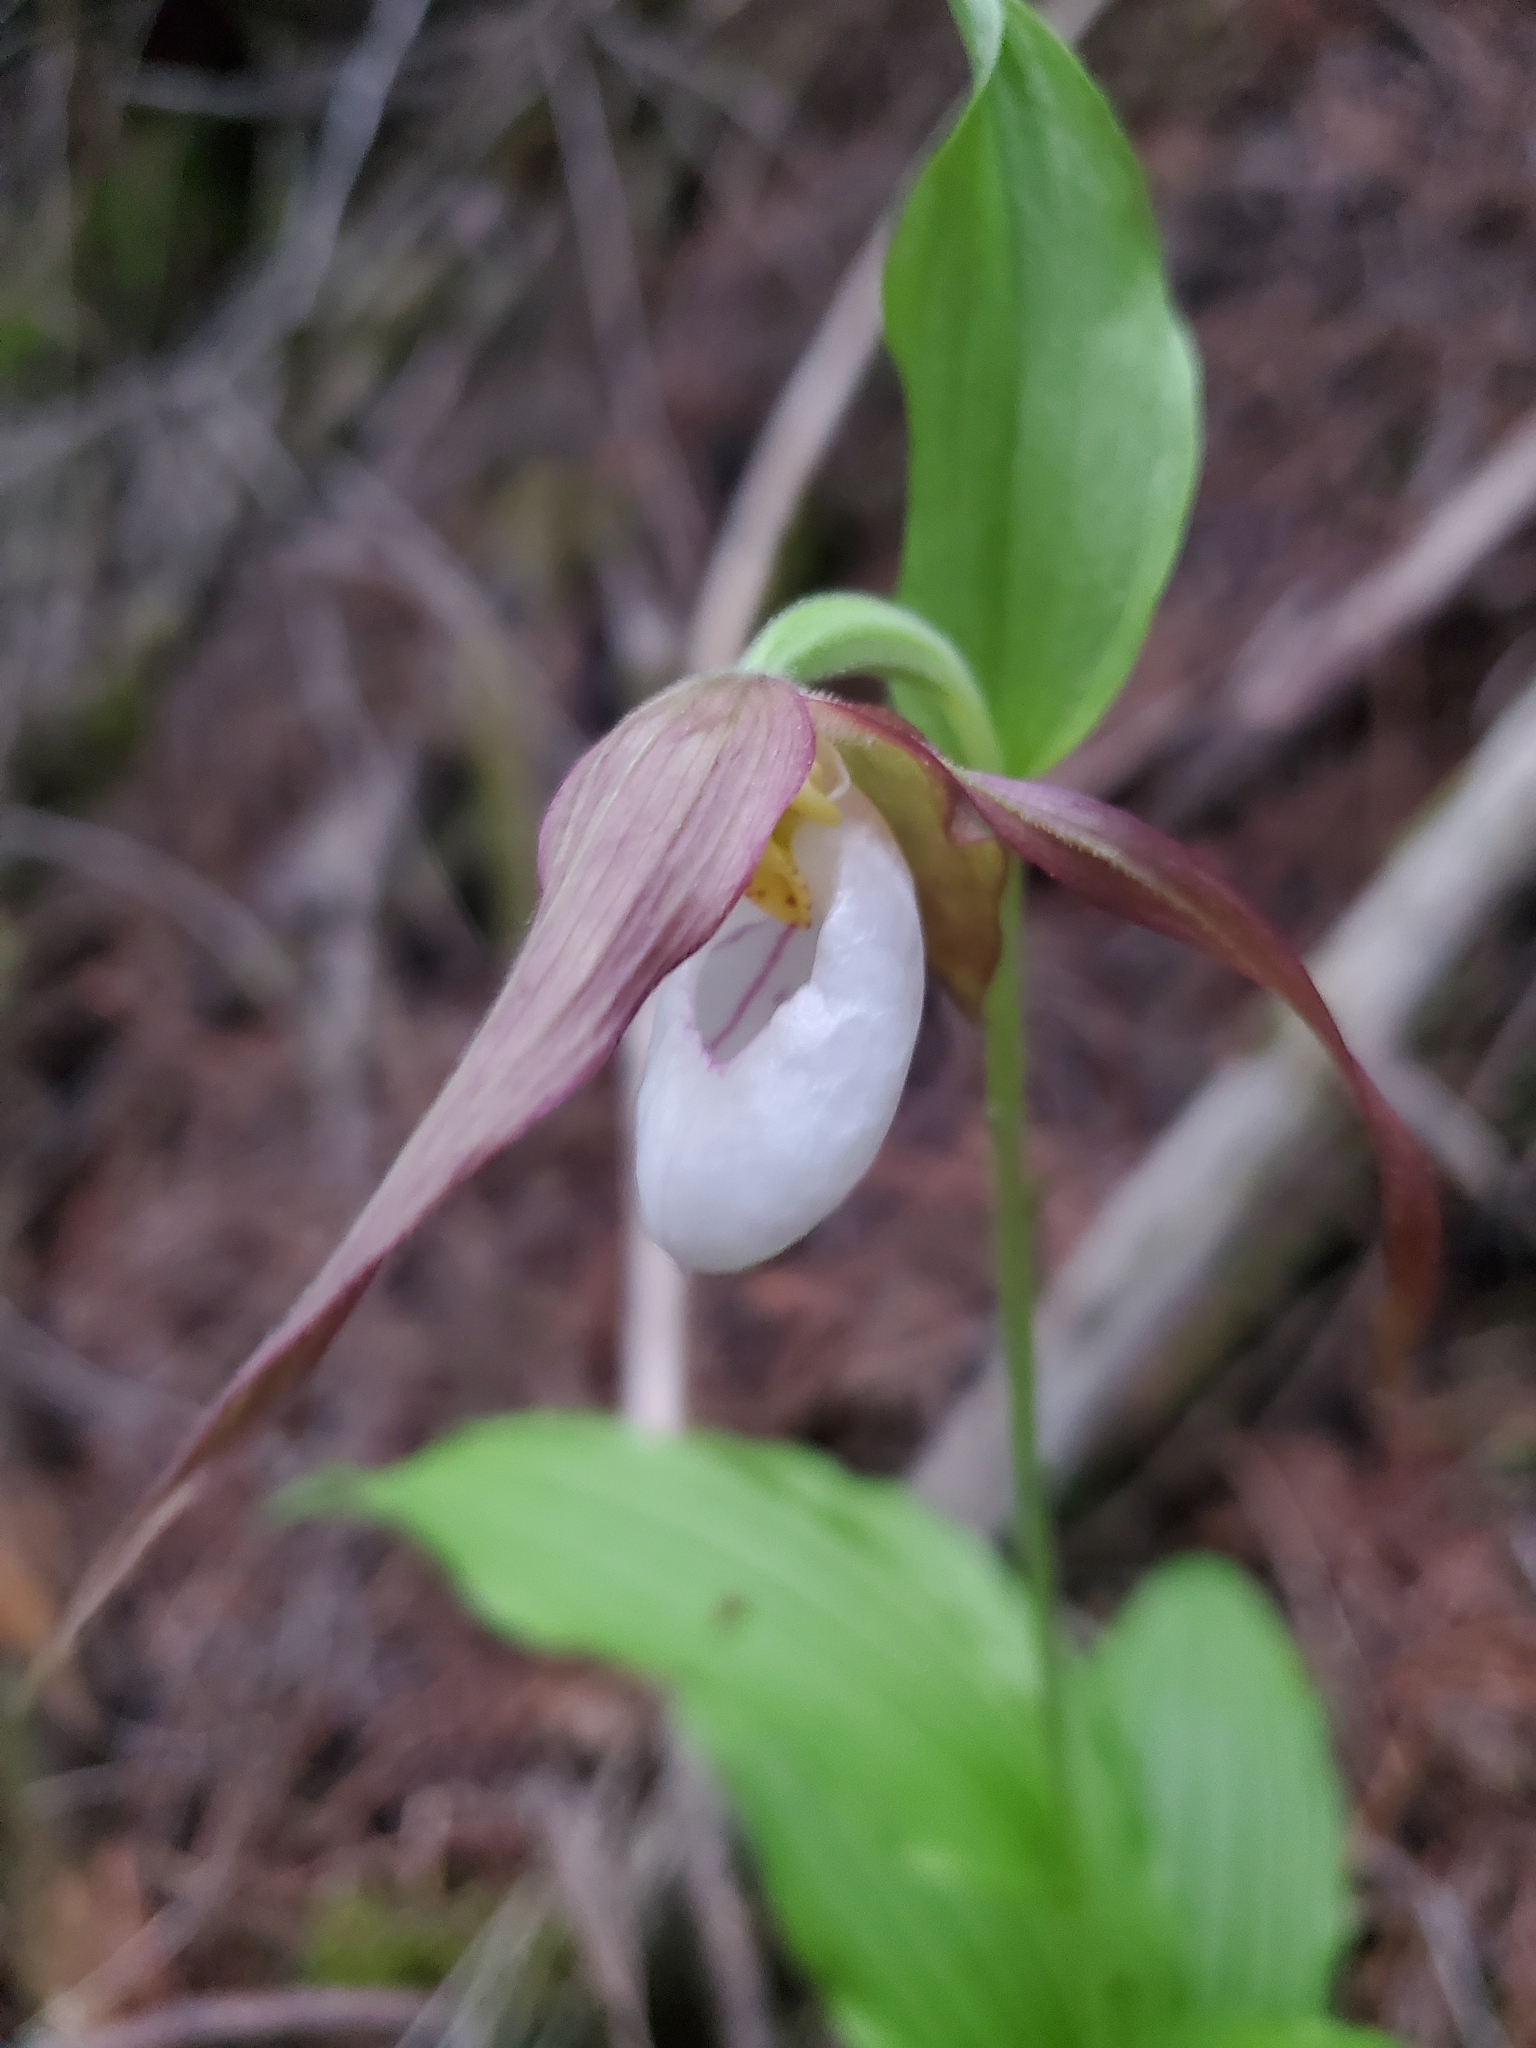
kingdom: Plantae
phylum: Tracheophyta
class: Liliopsida
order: Asparagales
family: Orchidaceae
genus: Cypripedium
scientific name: Cypripedium montanum
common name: Mountain lady's-slipper
